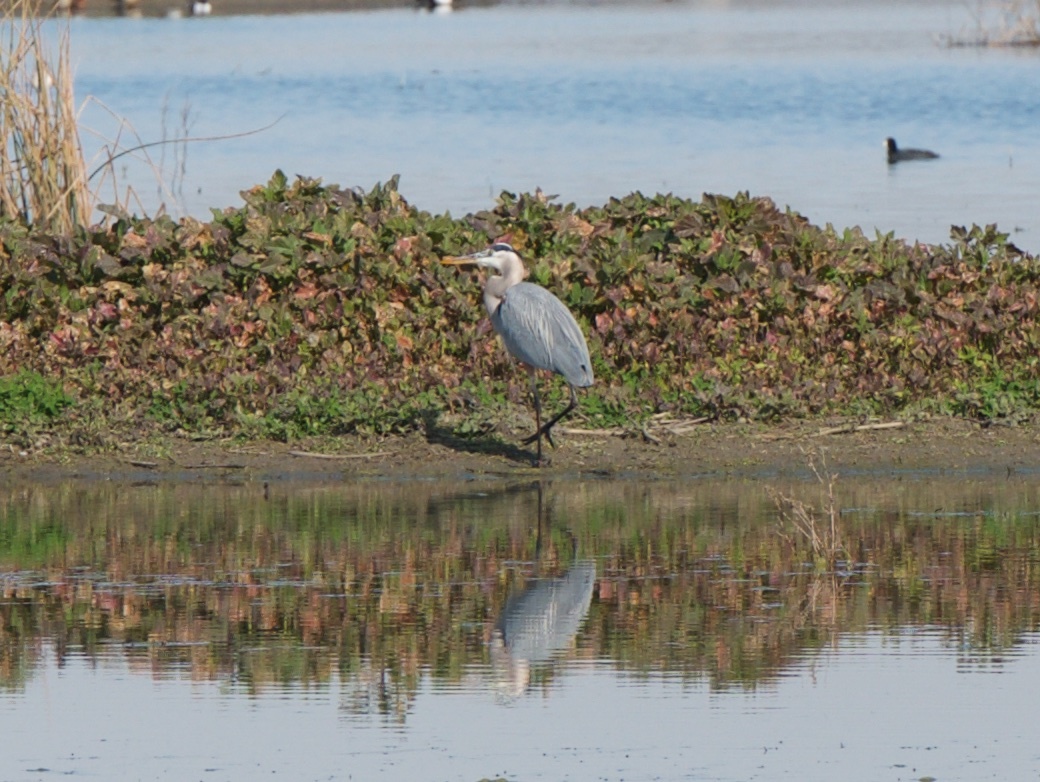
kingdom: Animalia
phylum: Chordata
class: Aves
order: Pelecaniformes
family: Ardeidae
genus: Ardea
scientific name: Ardea herodias
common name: Great blue heron
